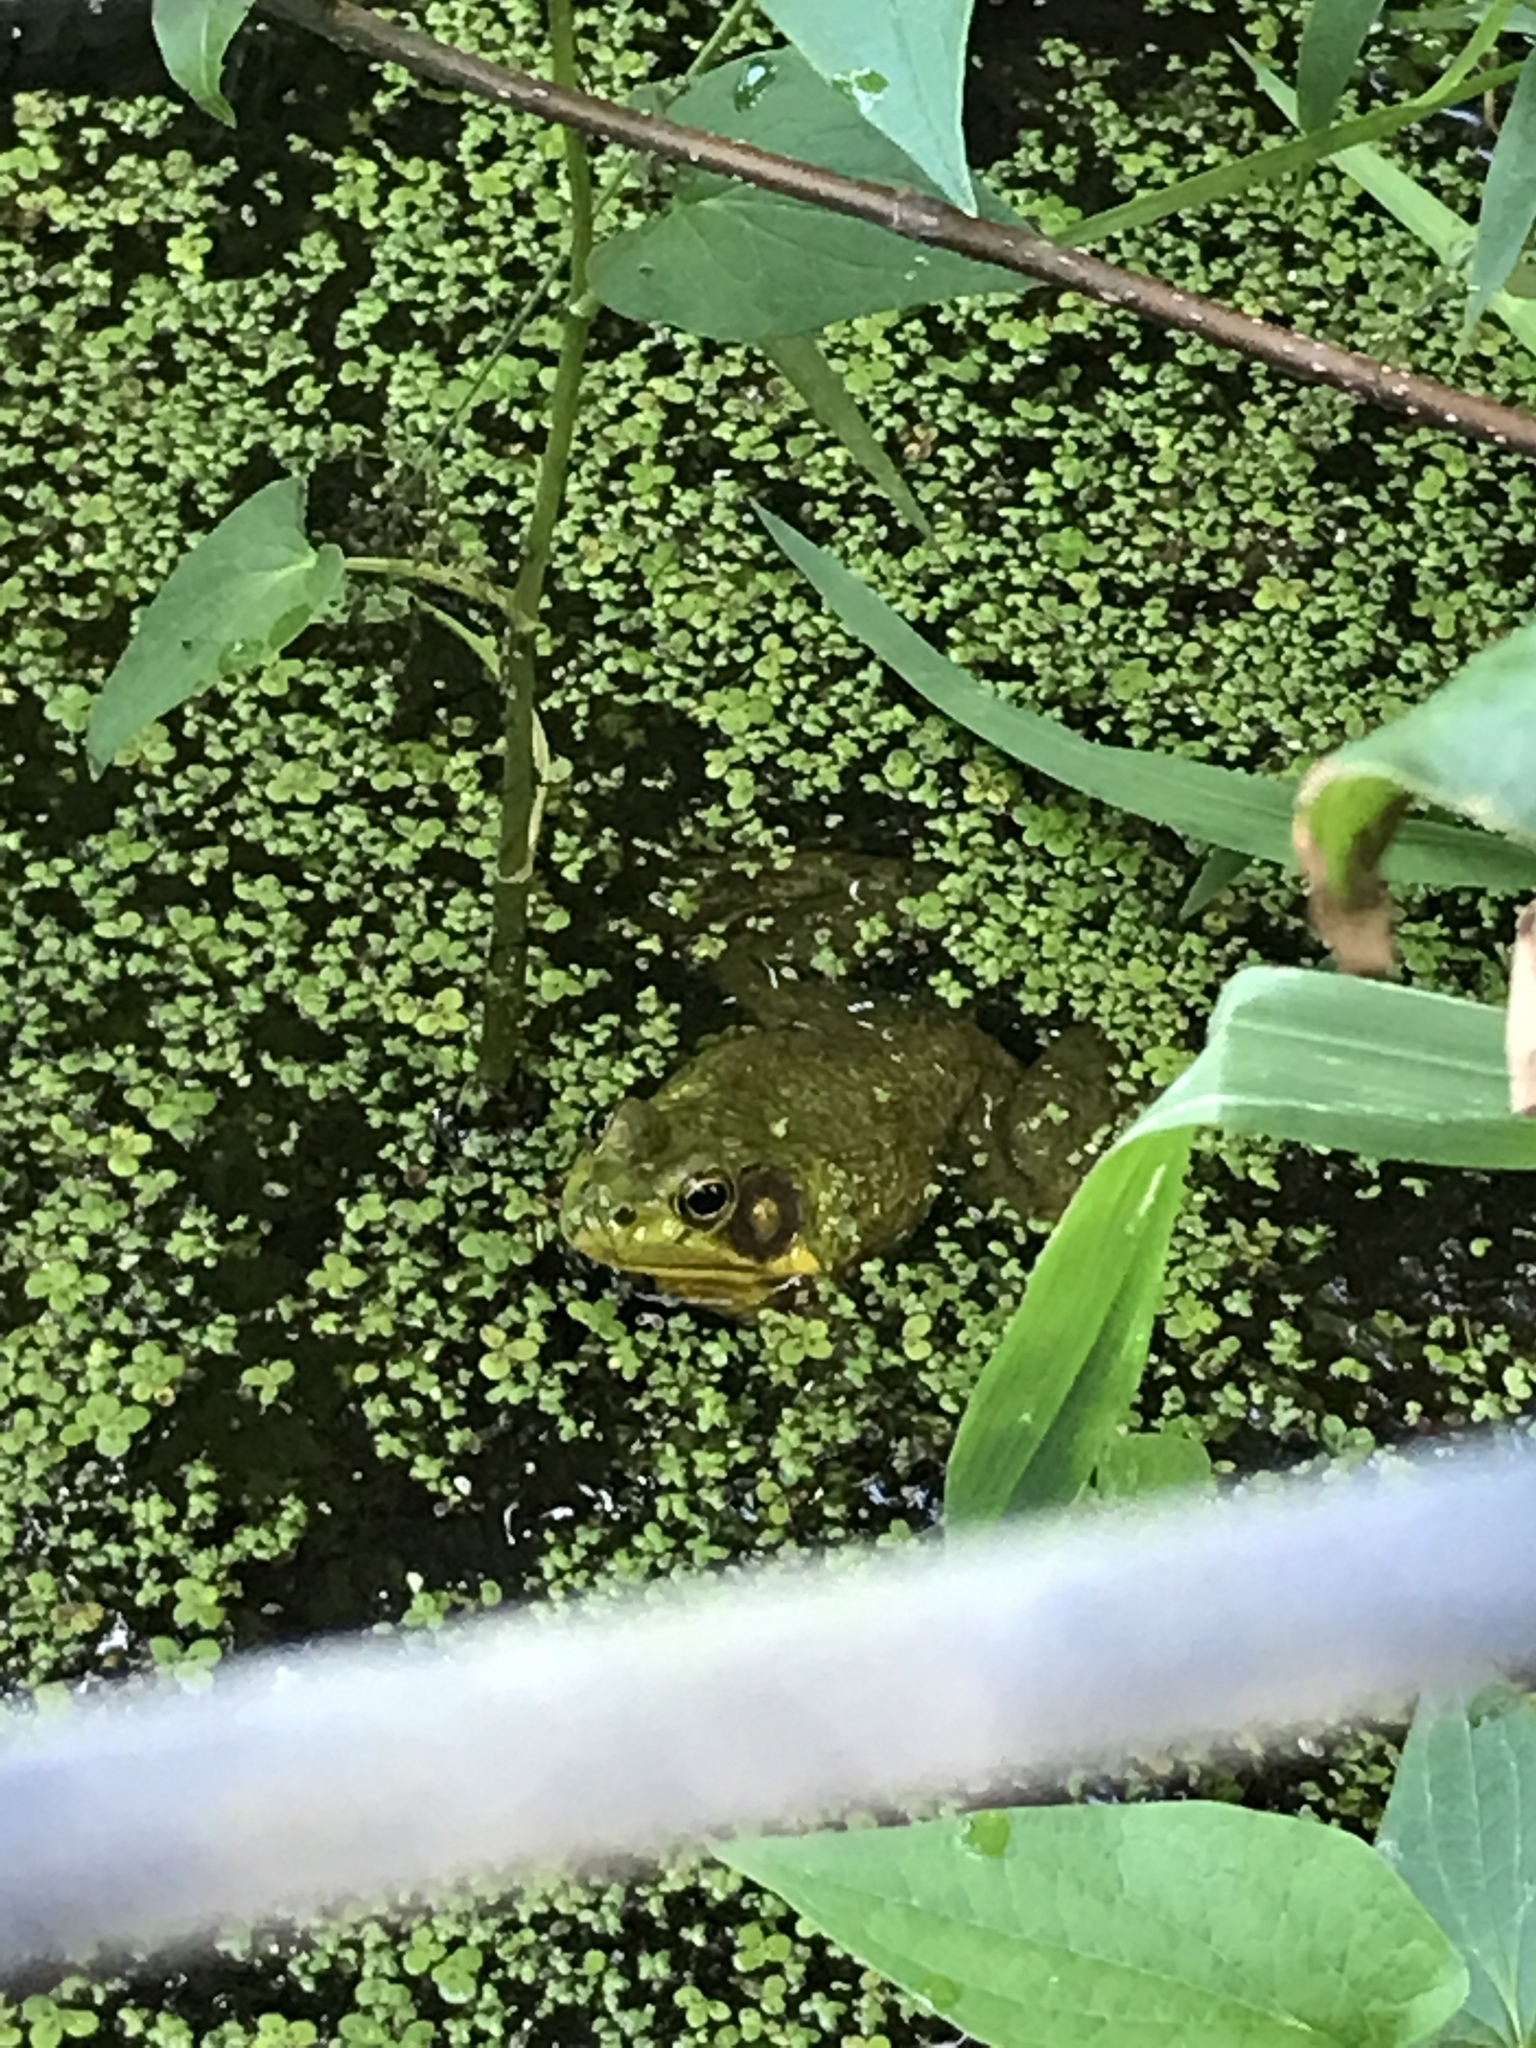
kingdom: Animalia
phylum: Chordata
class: Amphibia
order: Anura
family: Ranidae
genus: Lithobates
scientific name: Lithobates catesbeianus
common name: American bullfrog
